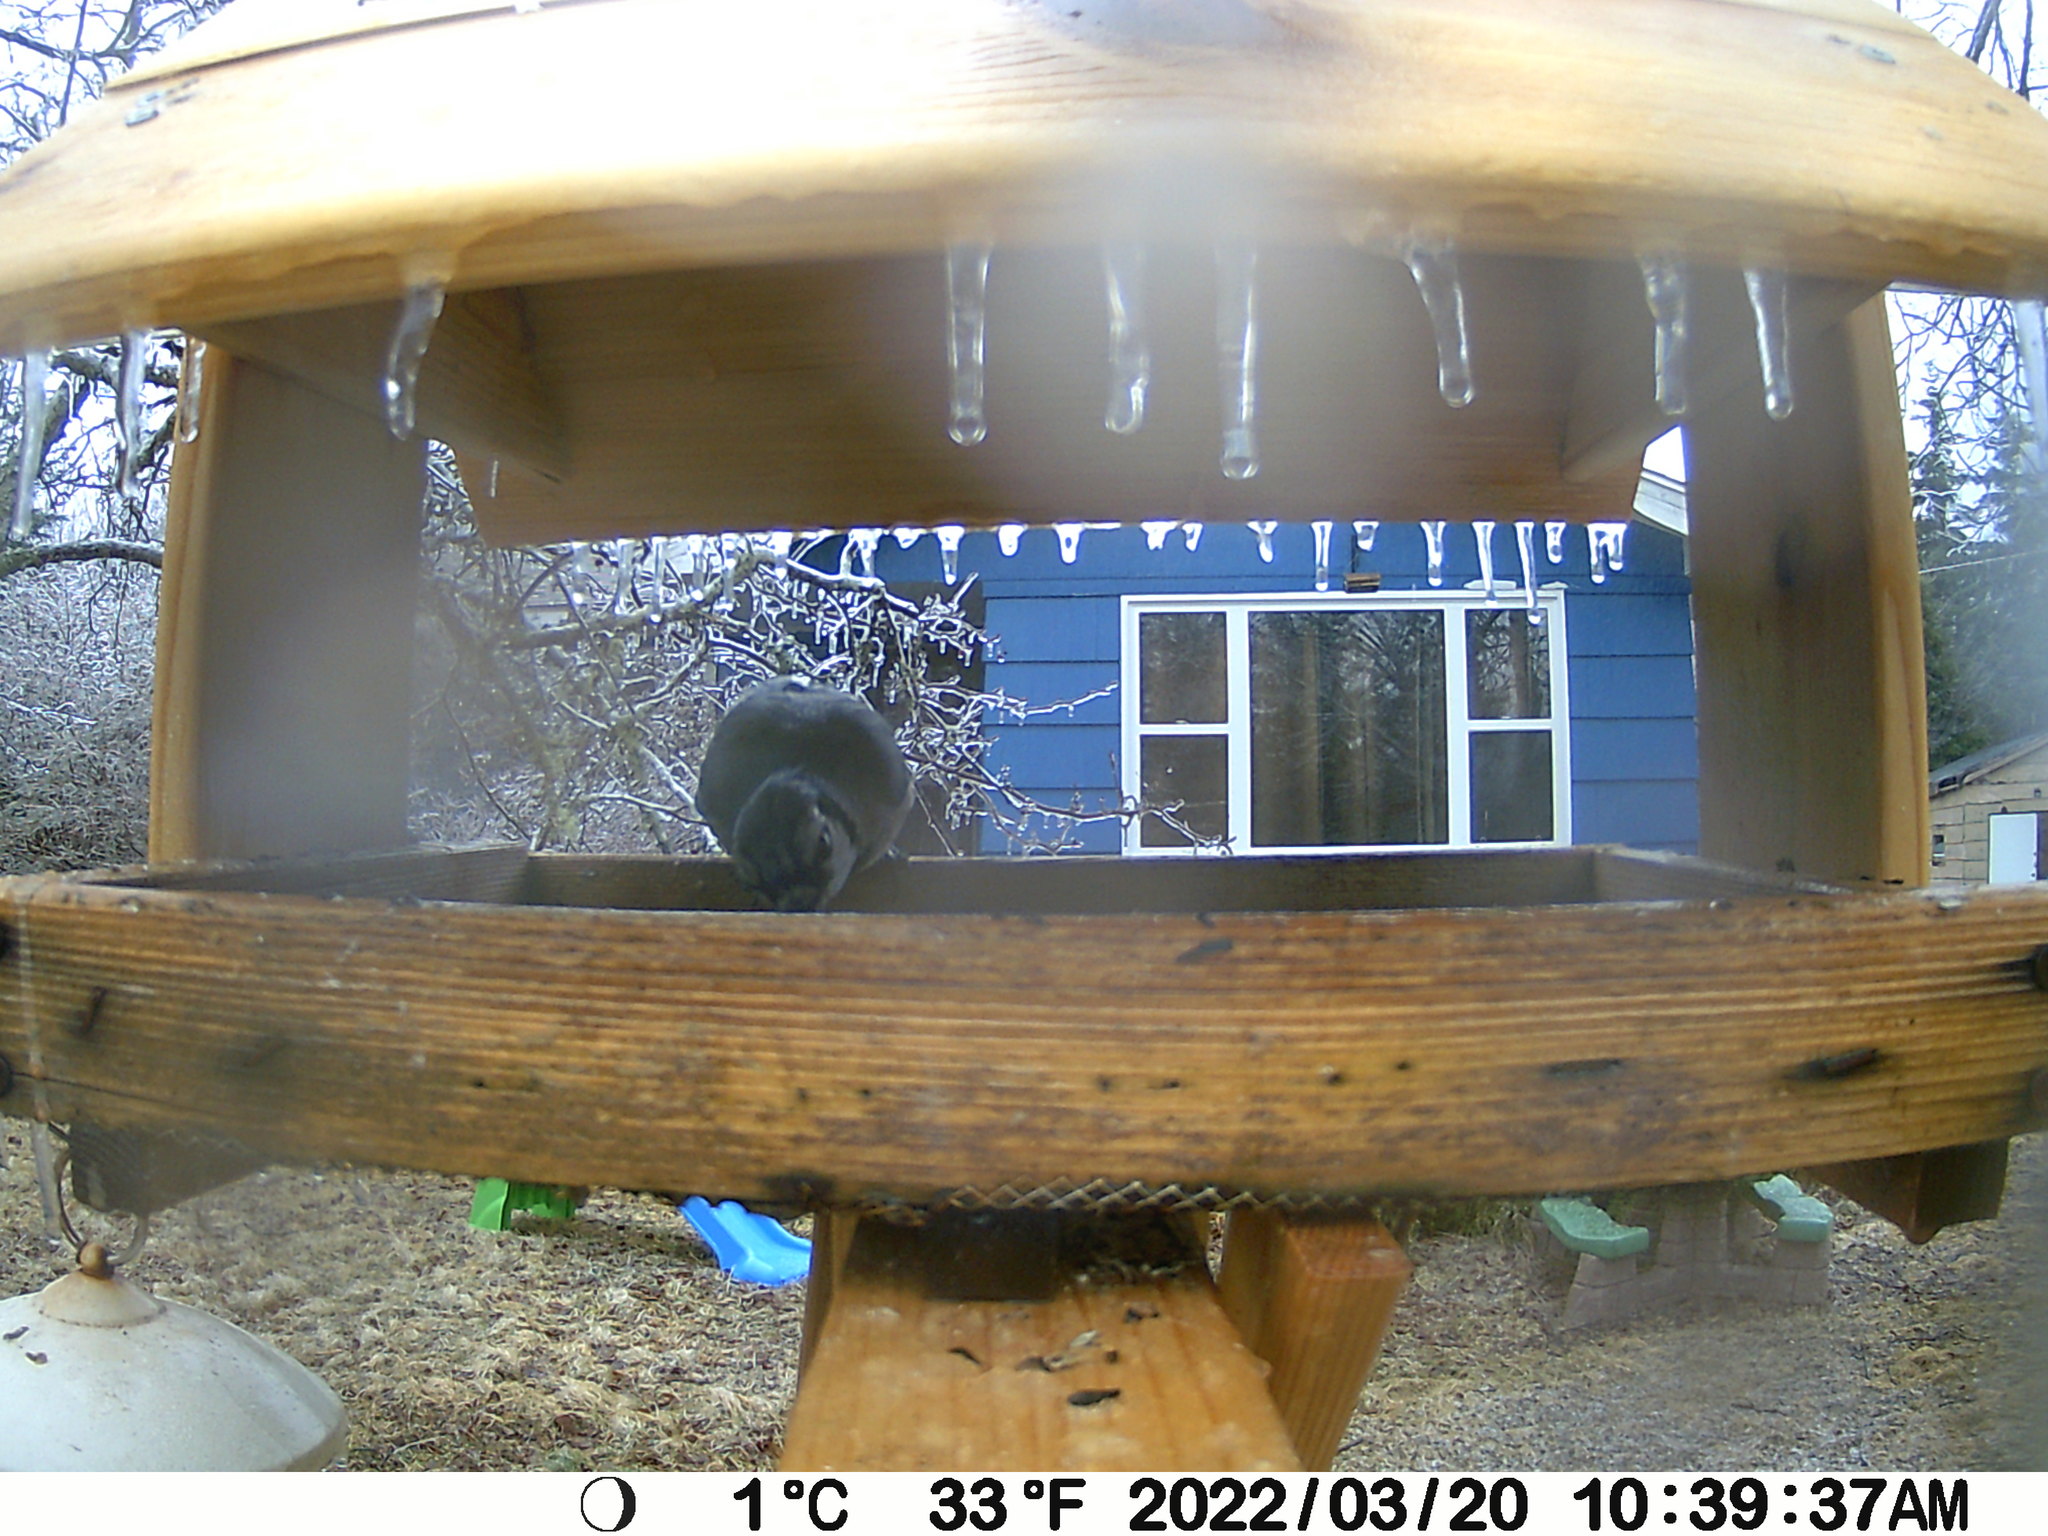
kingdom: Animalia
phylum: Chordata
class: Aves
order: Passeriformes
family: Corvidae
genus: Cyanocitta
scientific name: Cyanocitta cristata
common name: Blue jay
